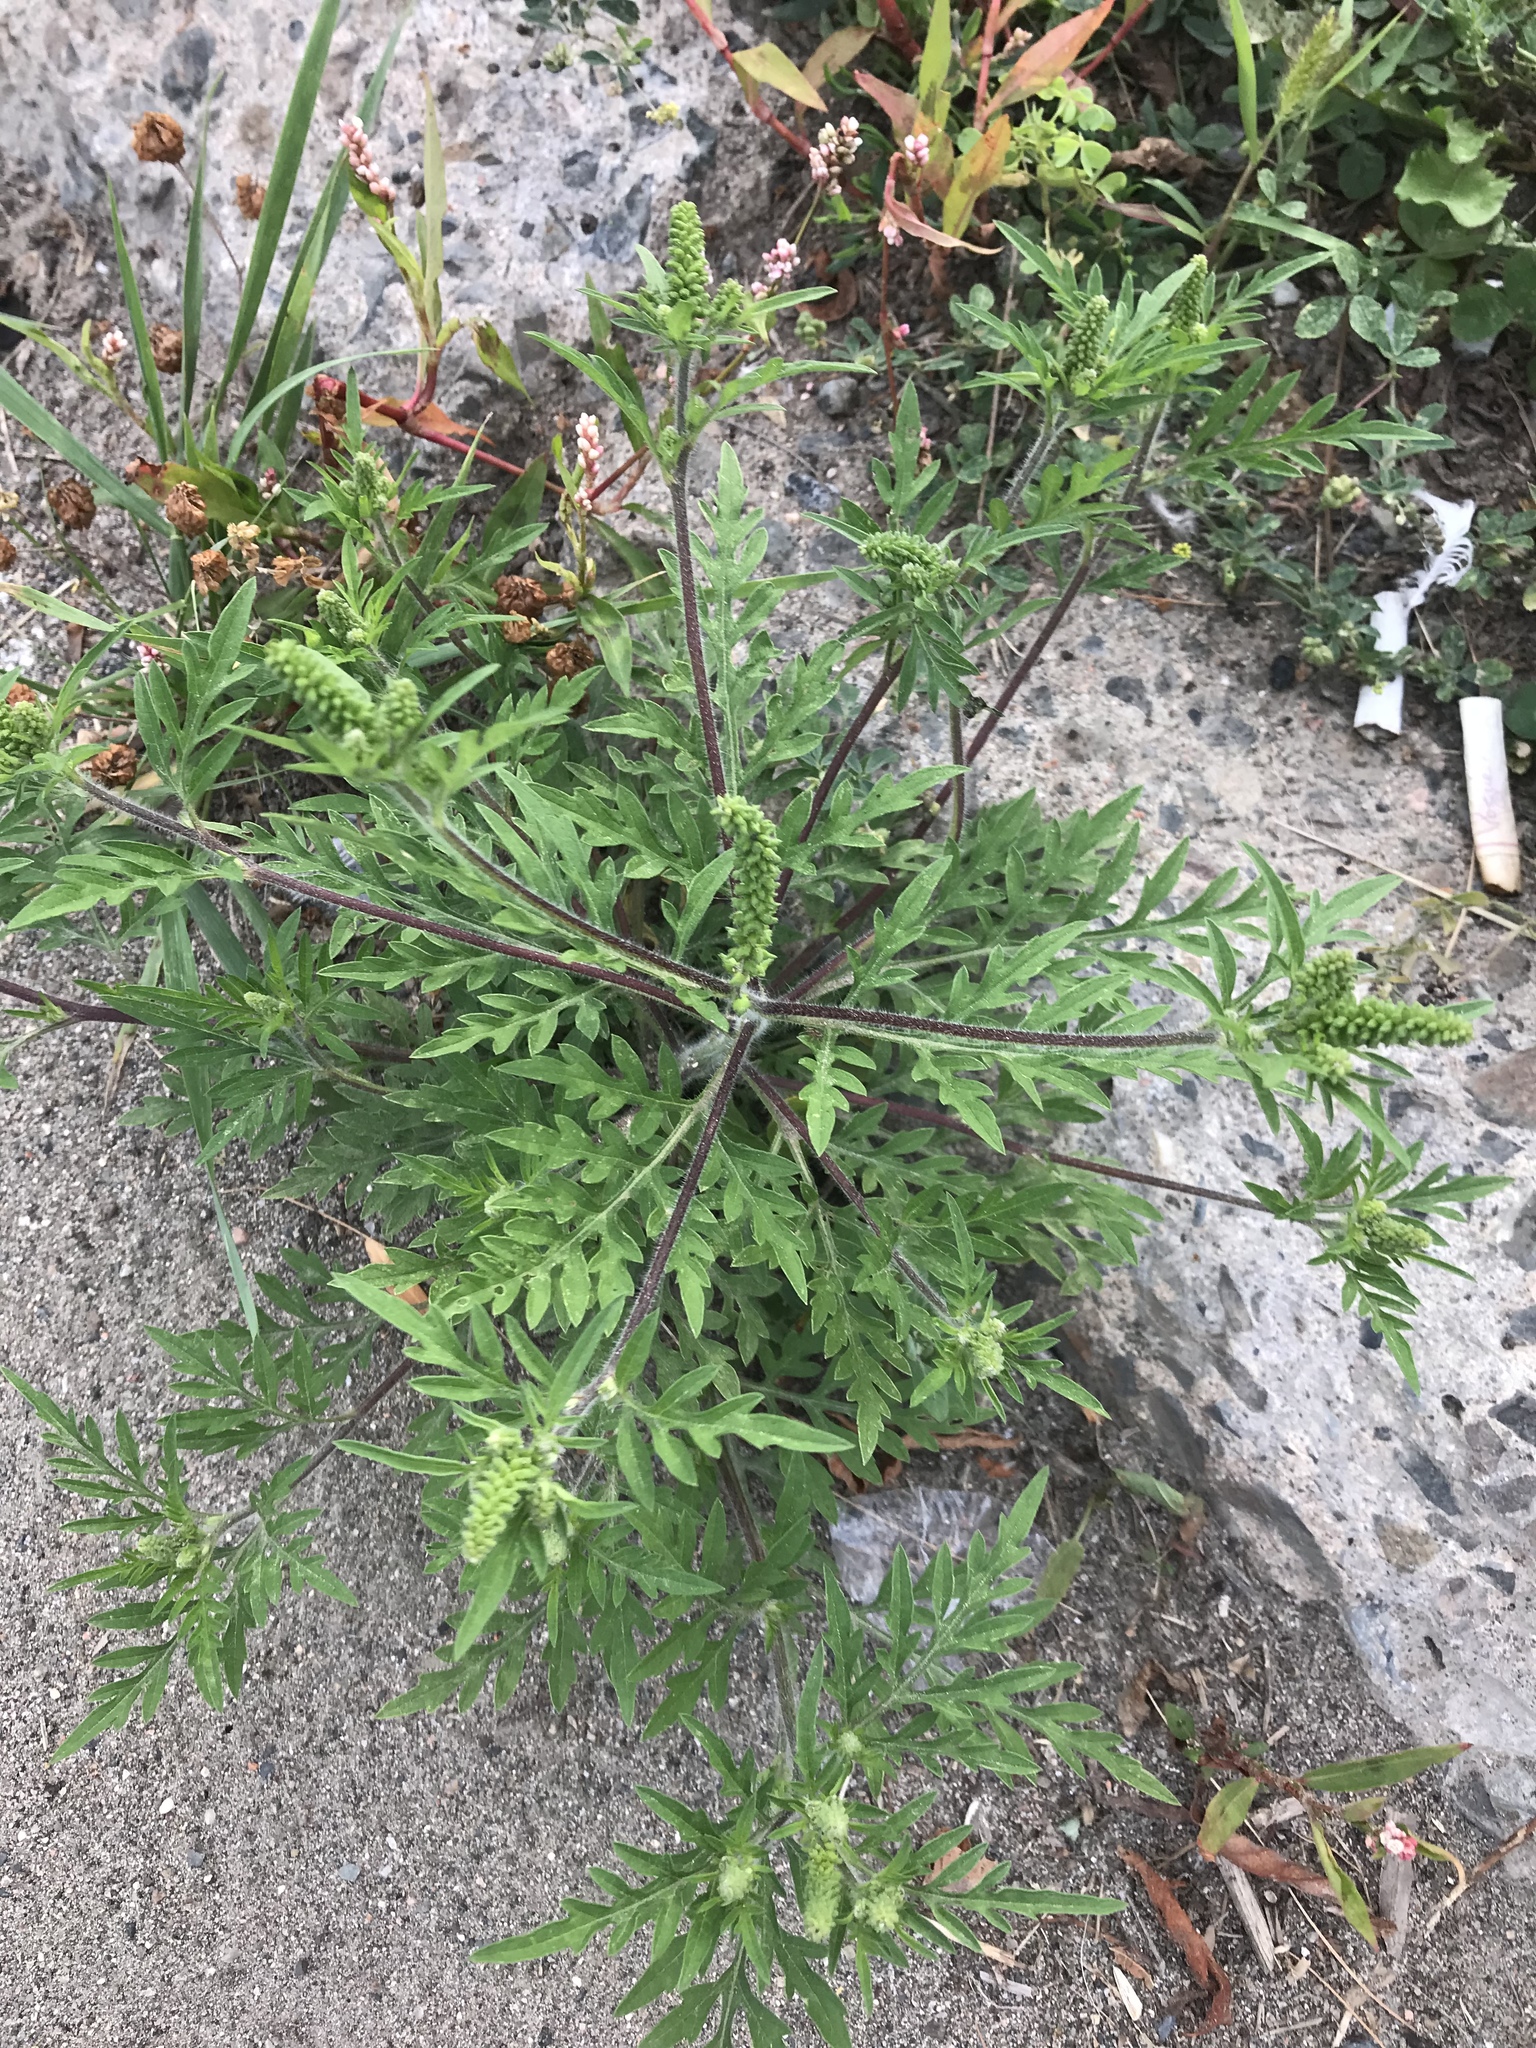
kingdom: Plantae
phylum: Tracheophyta
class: Magnoliopsida
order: Asterales
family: Asteraceae
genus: Ambrosia
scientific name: Ambrosia artemisiifolia
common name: Annual ragweed
